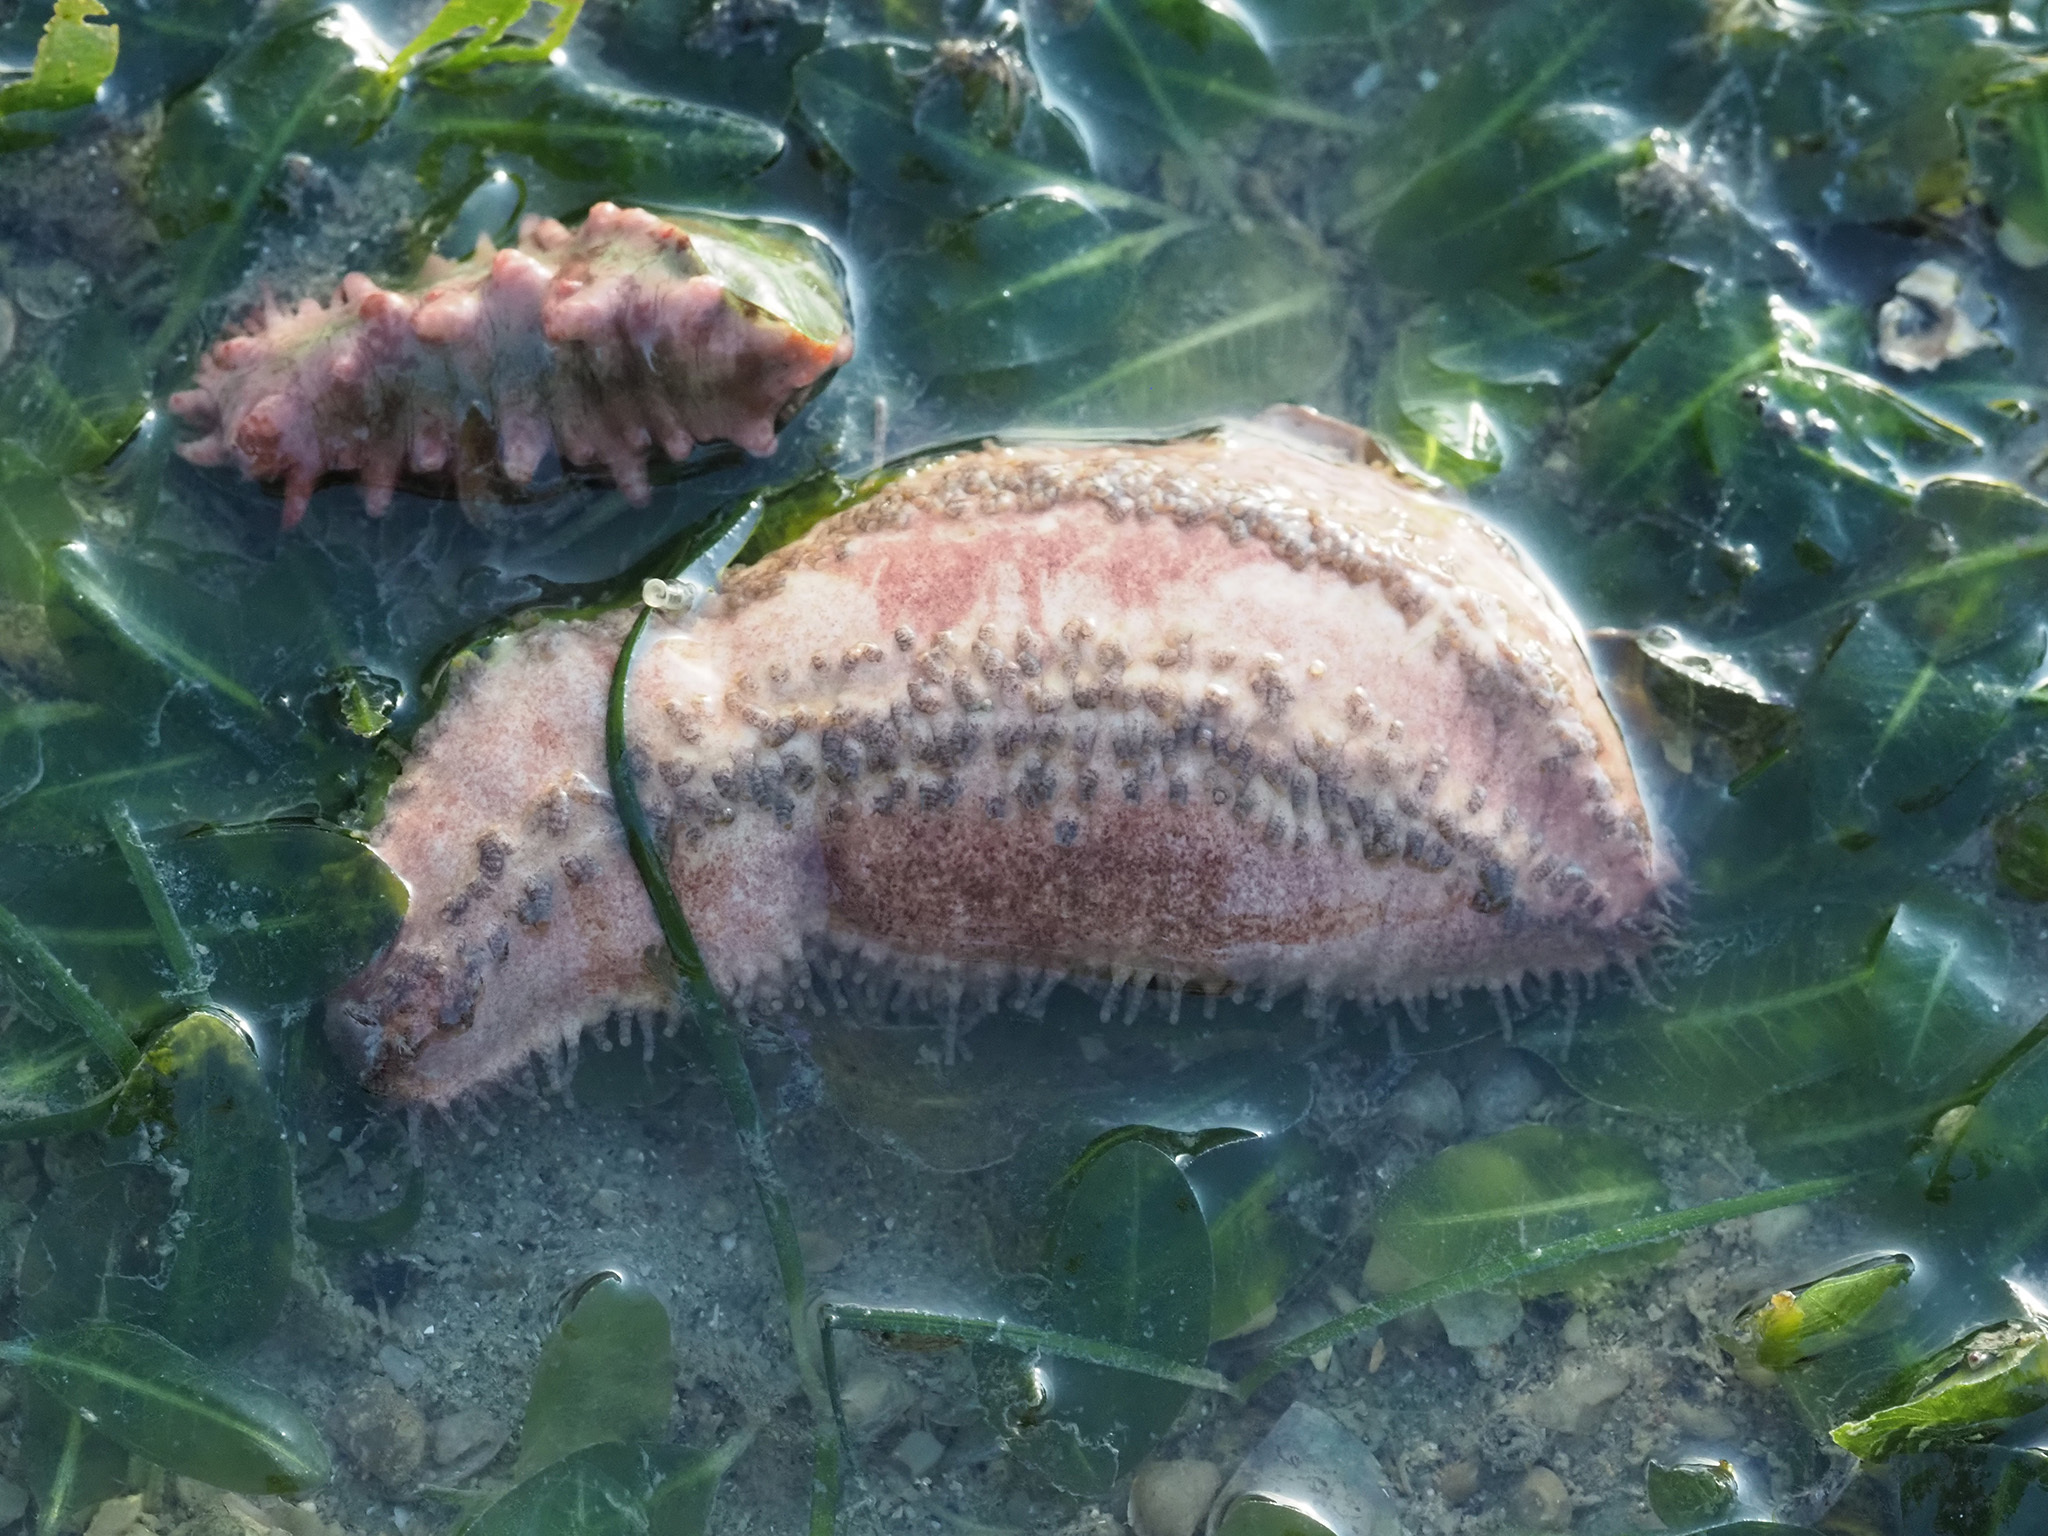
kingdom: Animalia
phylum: Echinodermata
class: Holothuroidea
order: Dendrochirotida
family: Cucumariidae
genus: Cercodemas
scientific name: Cercodemas anceps
